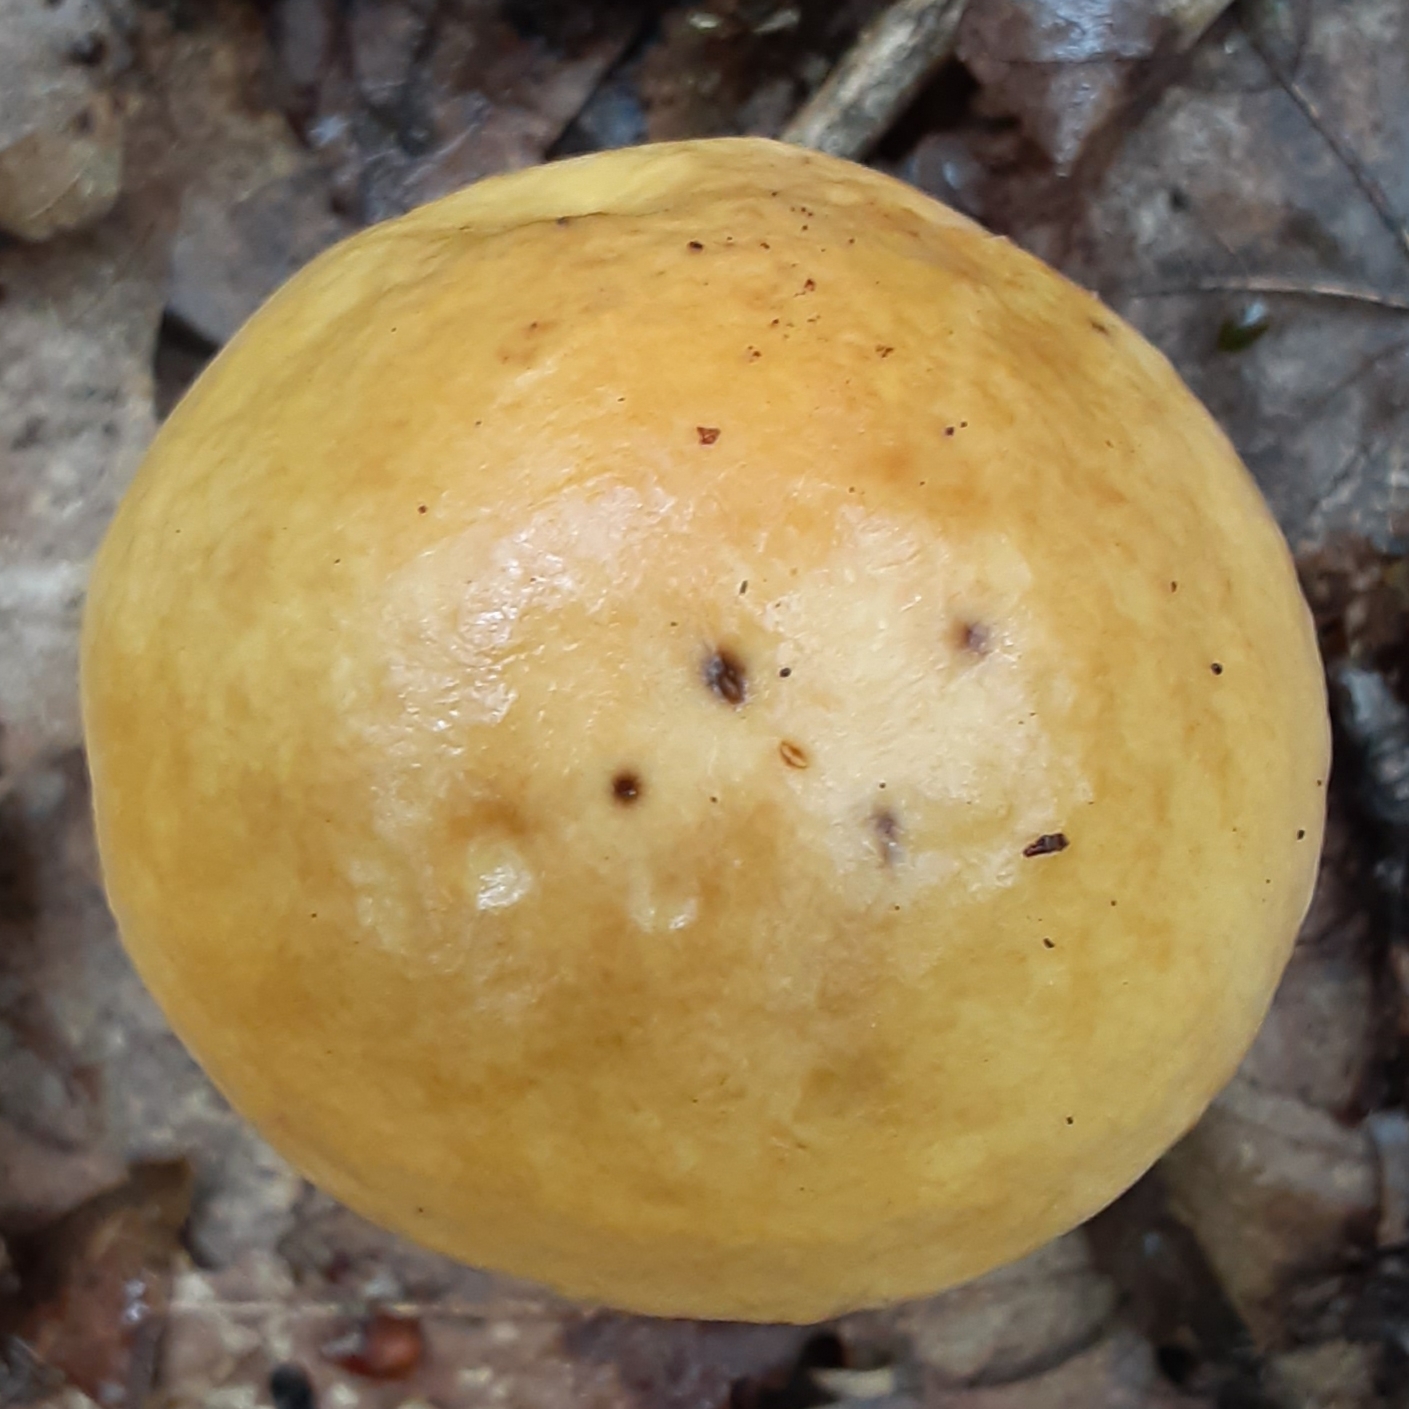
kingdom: Fungi
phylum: Basidiomycota
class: Agaricomycetes
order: Boletales
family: Boletaceae
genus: Leccinum
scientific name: Leccinum longicurvipes
